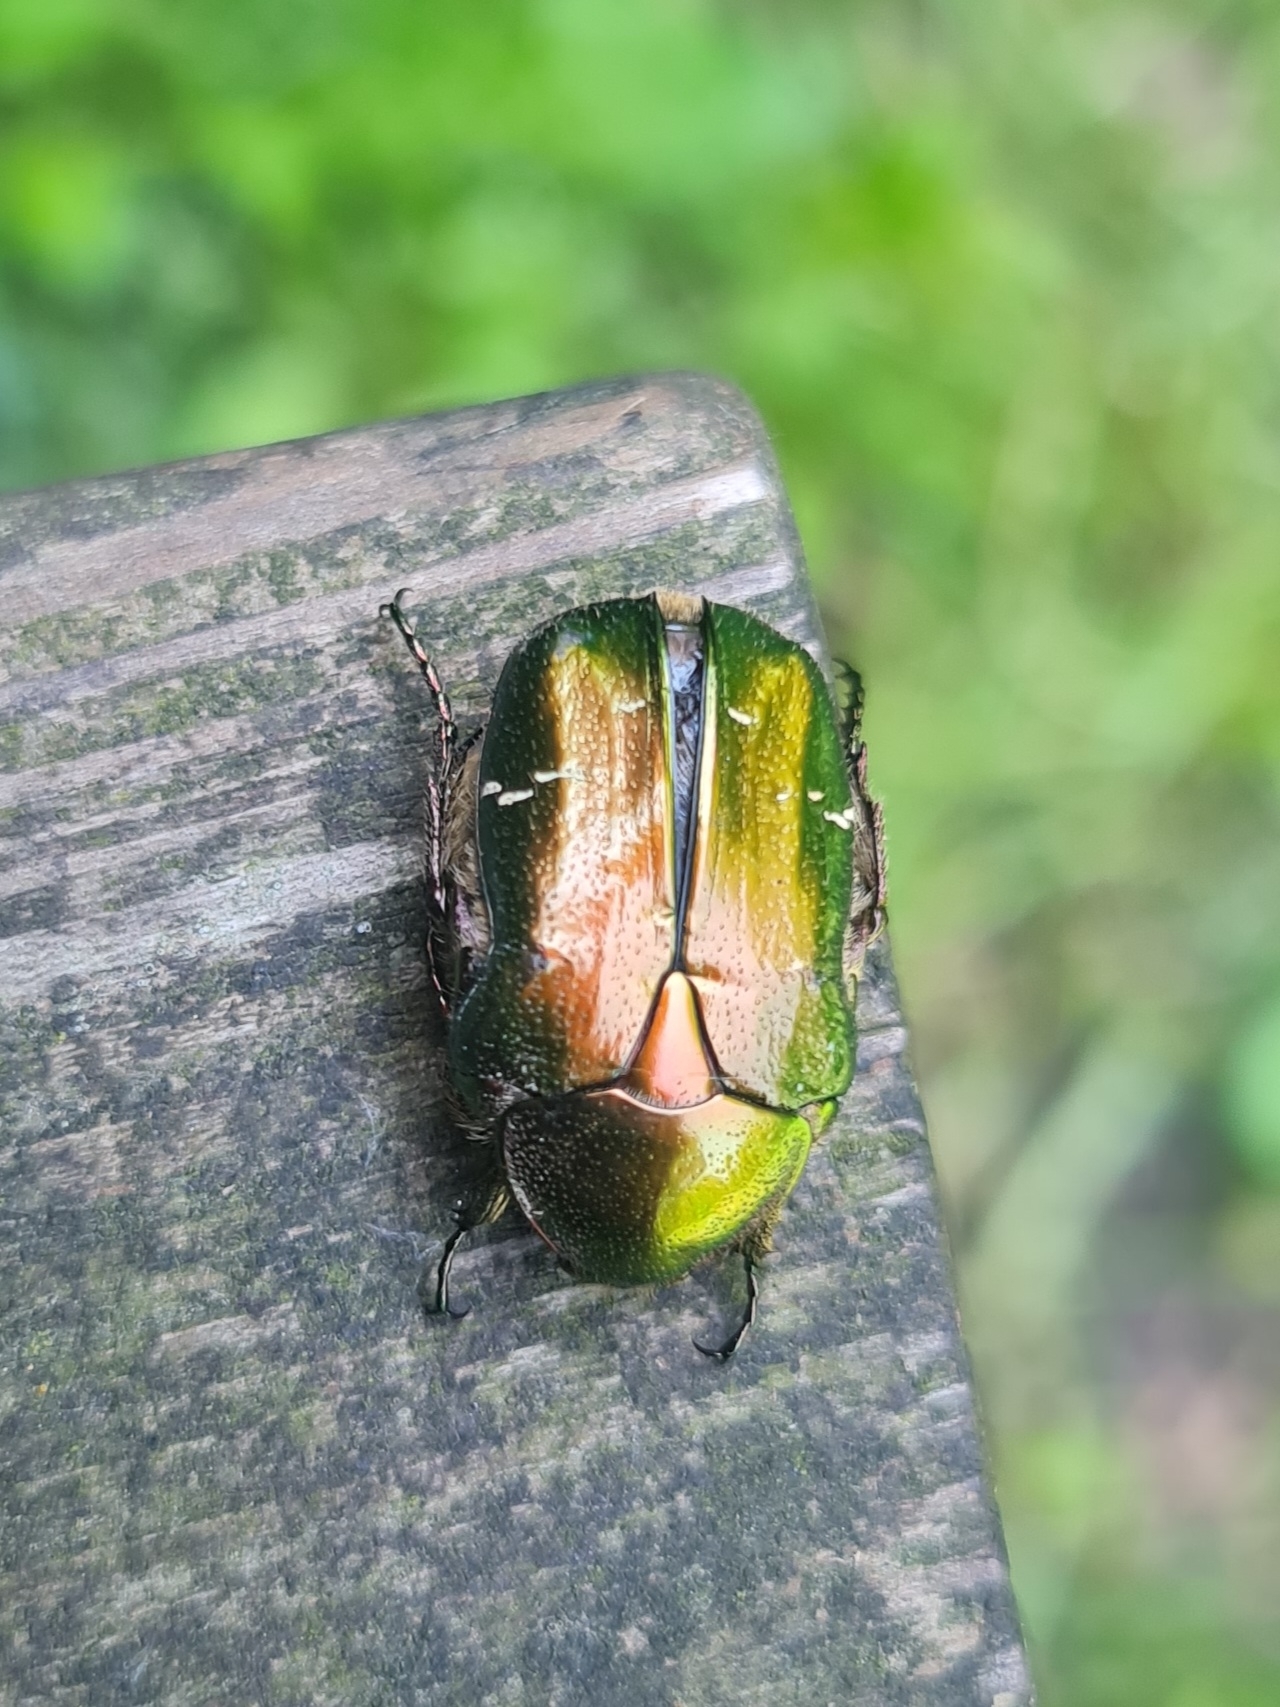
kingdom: Animalia
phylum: Arthropoda
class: Insecta
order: Coleoptera
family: Scarabaeidae
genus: Cetonia
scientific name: Cetonia aurata
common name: Rose chafer
